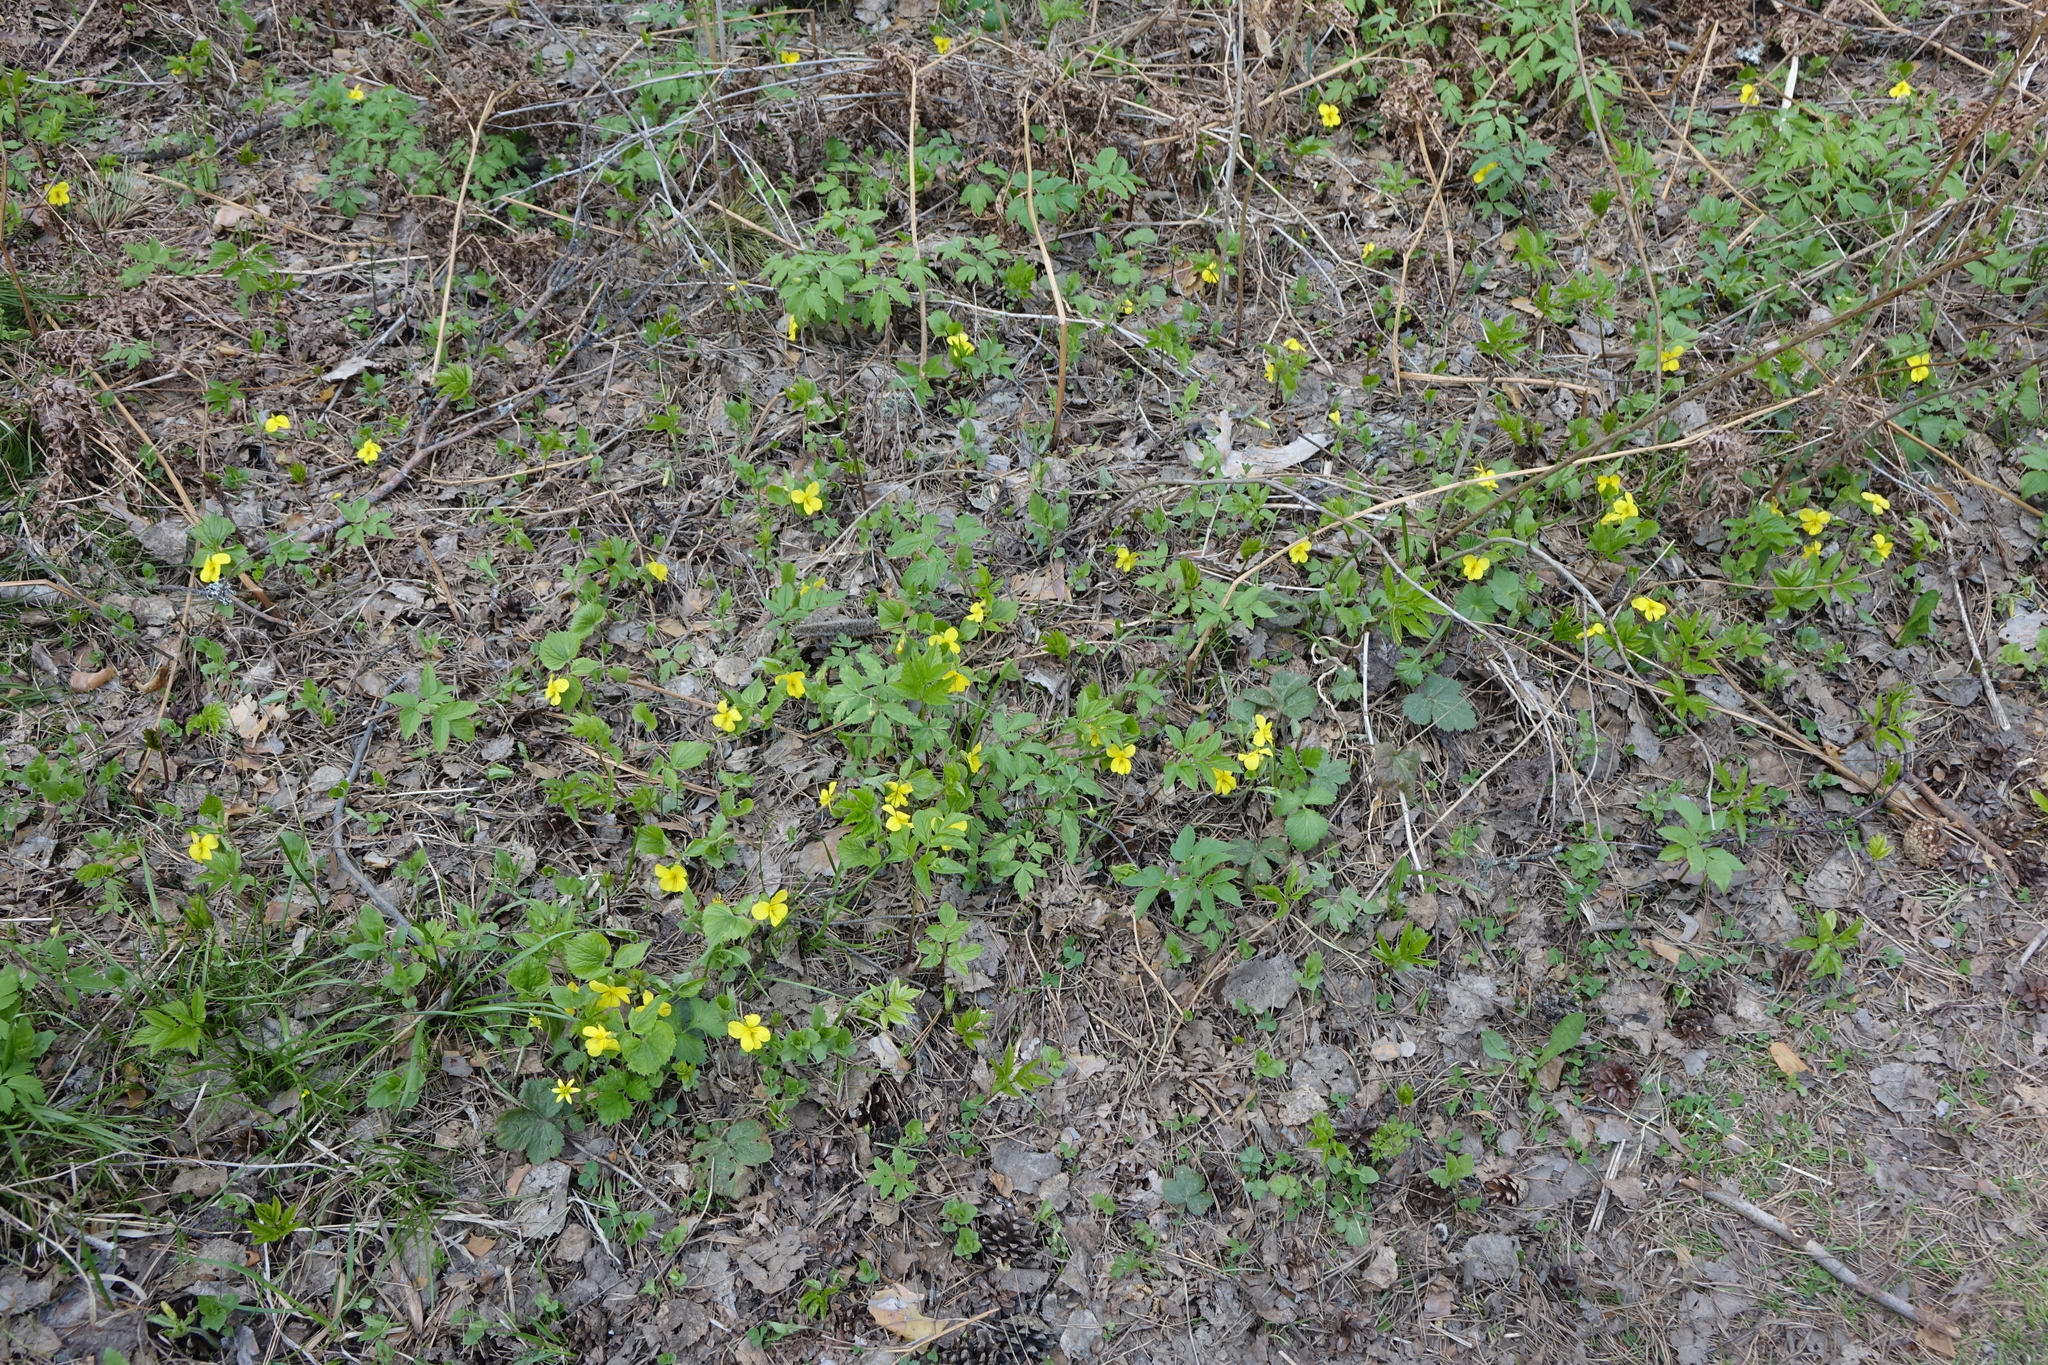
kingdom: Plantae
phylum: Tracheophyta
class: Magnoliopsida
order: Malpighiales
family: Violaceae
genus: Viola
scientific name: Viola uniflora
